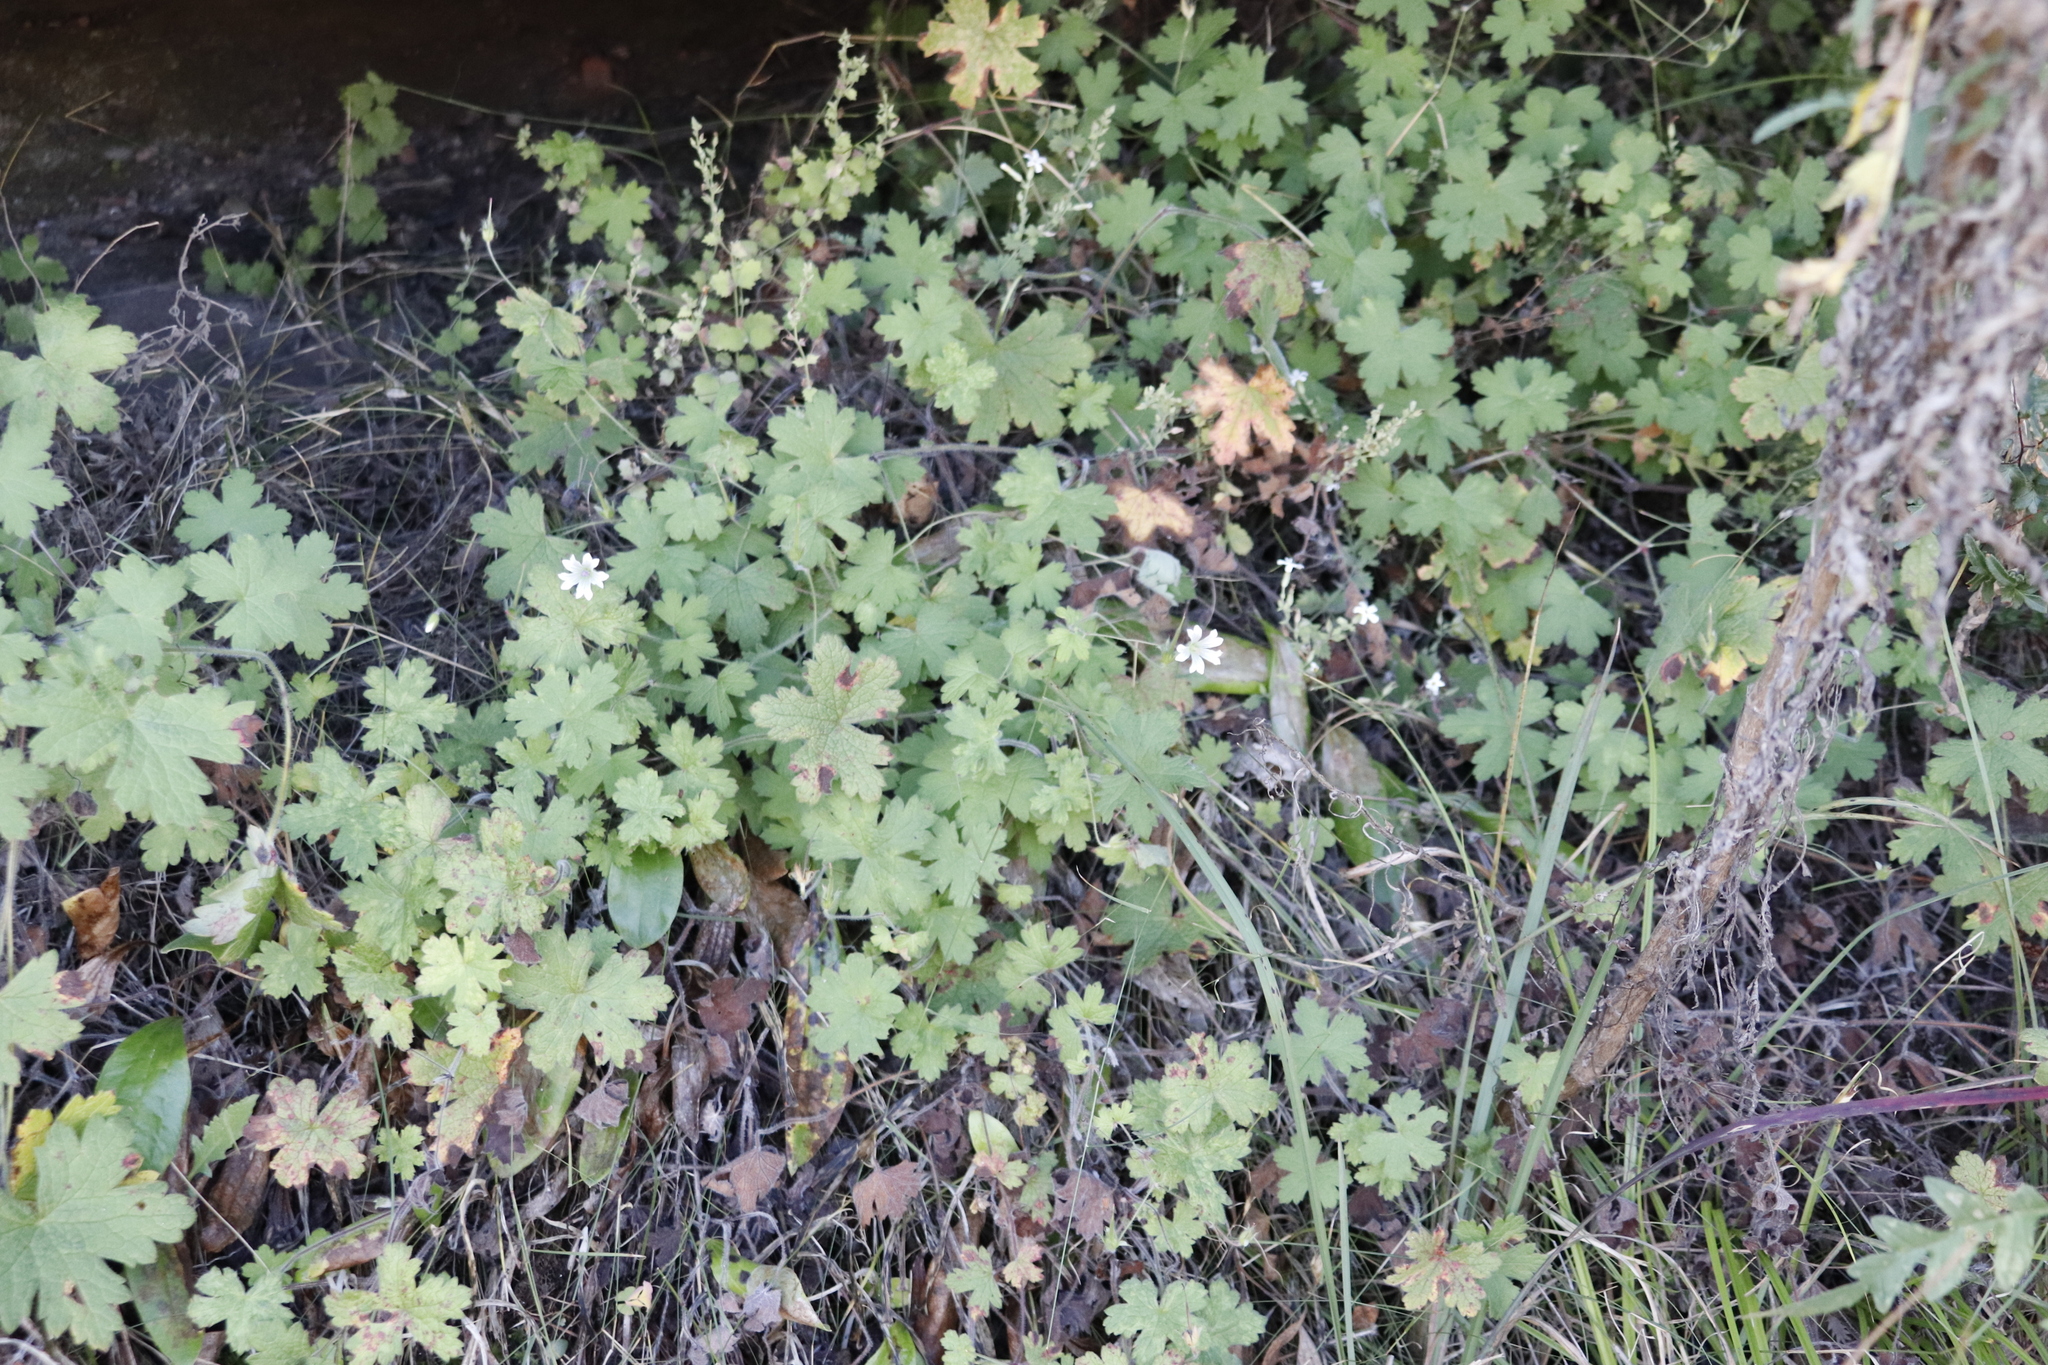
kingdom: Plantae
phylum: Tracheophyta
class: Magnoliopsida
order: Geraniales
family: Geraniaceae
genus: Geranium
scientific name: Geranium wakkerstroomianum
